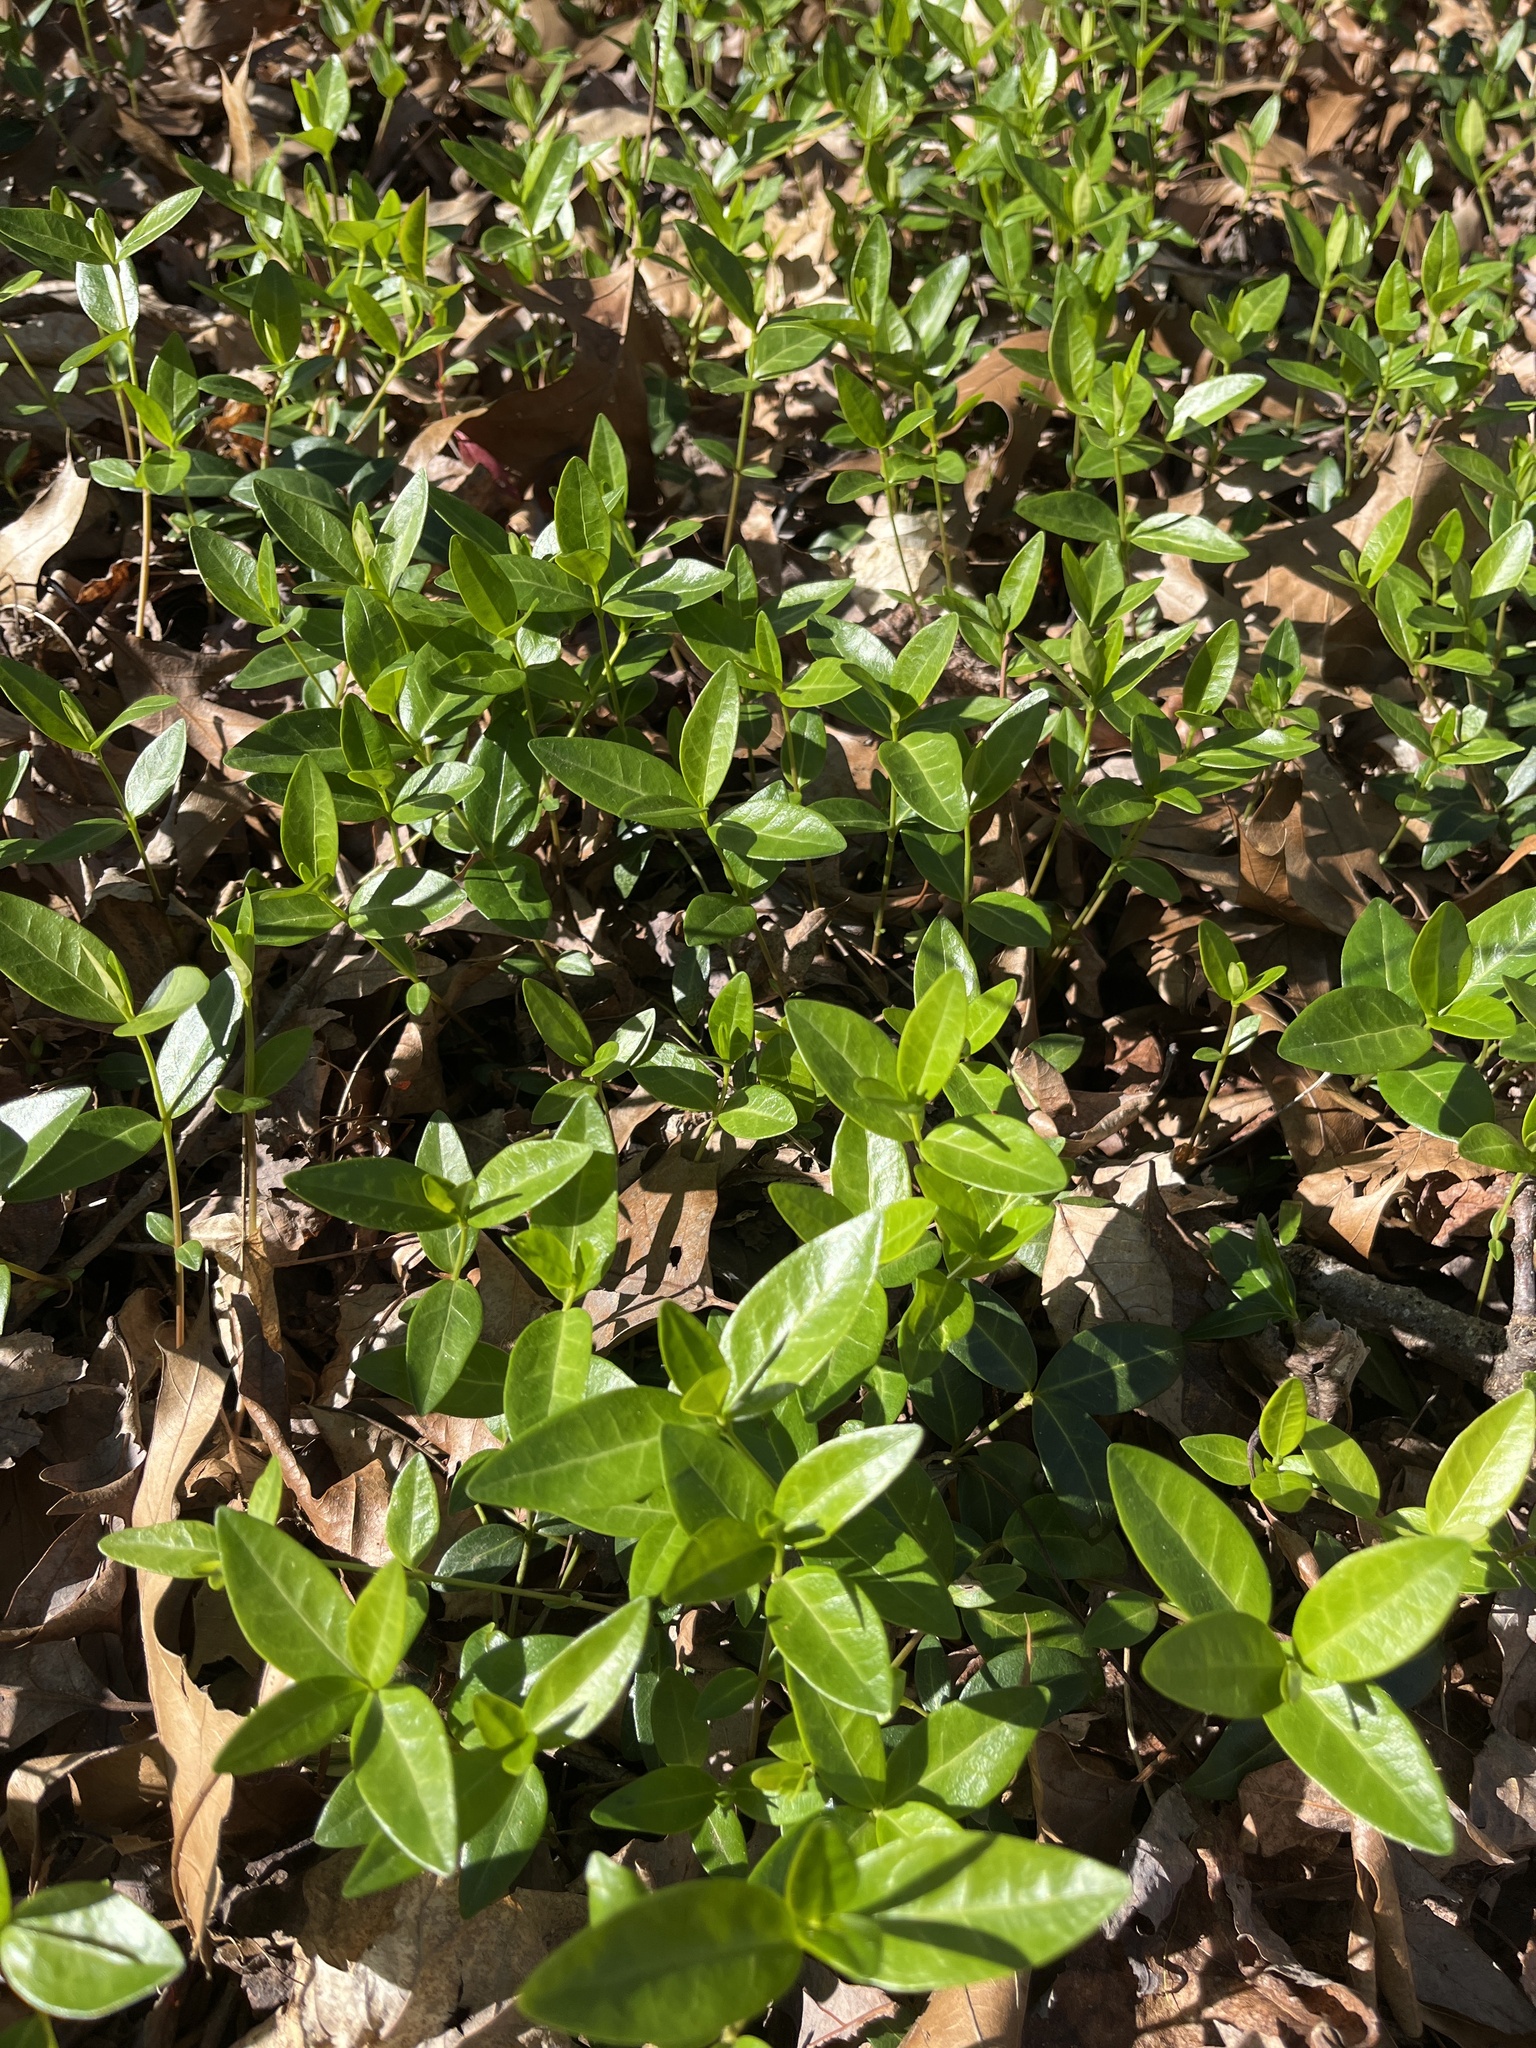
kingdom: Plantae
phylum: Tracheophyta
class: Magnoliopsida
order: Gentianales
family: Apocynaceae
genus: Vinca
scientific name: Vinca minor
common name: Lesser periwinkle
